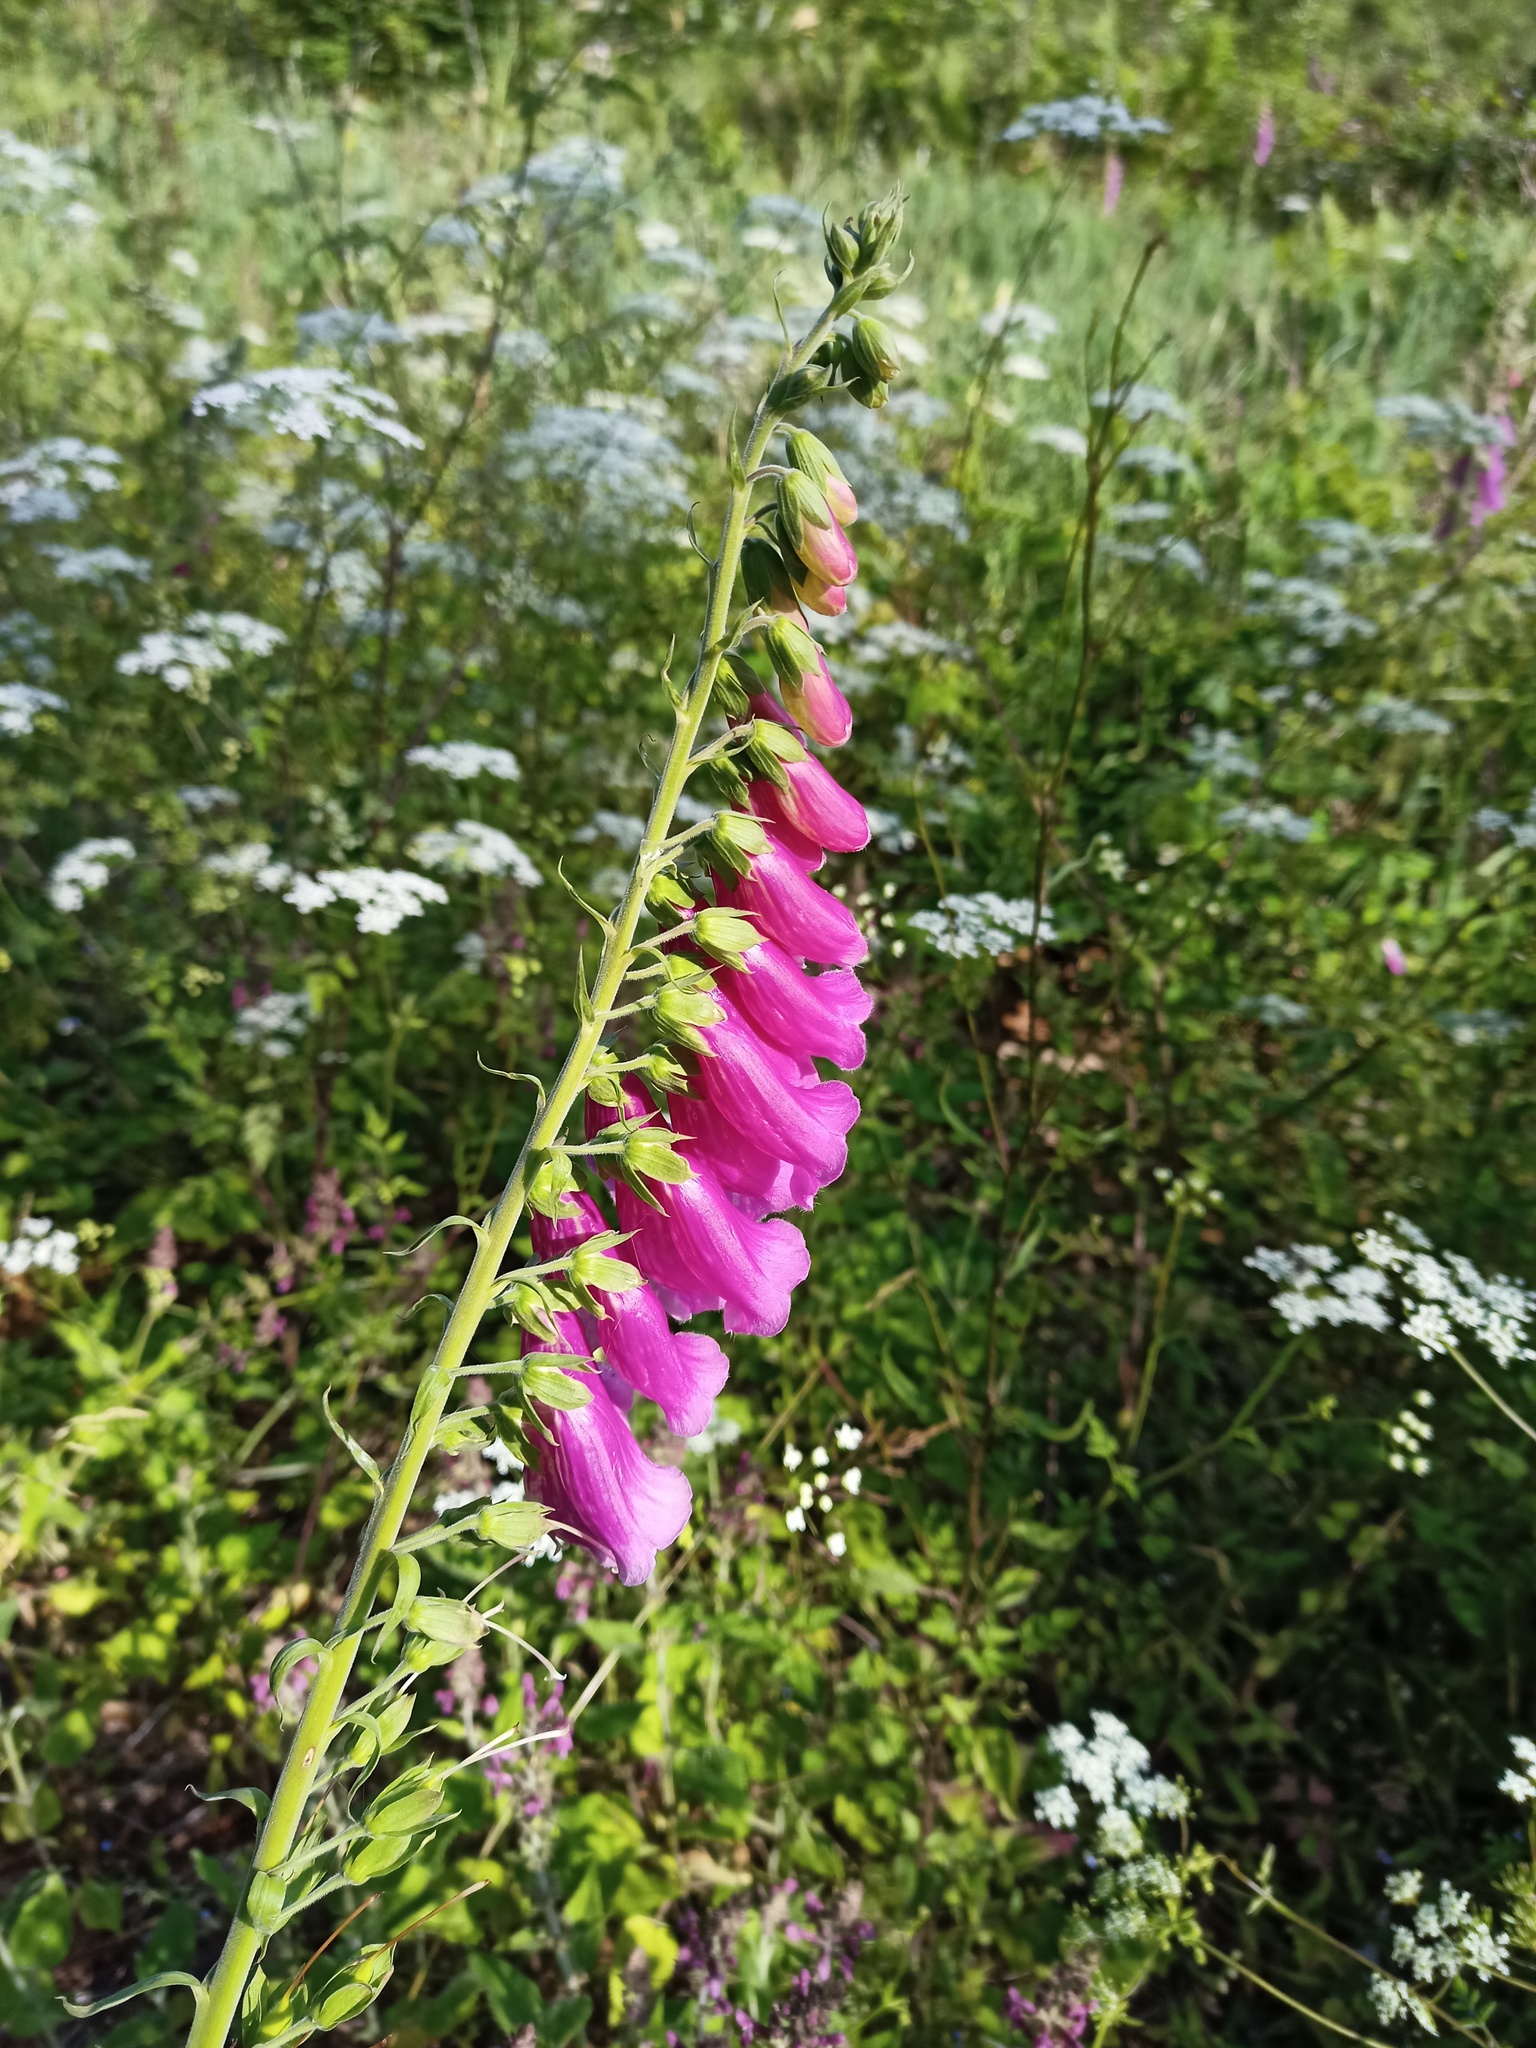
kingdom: Plantae
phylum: Tracheophyta
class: Magnoliopsida
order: Lamiales
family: Plantaginaceae
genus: Digitalis
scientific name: Digitalis purpurea
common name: Foxglove
